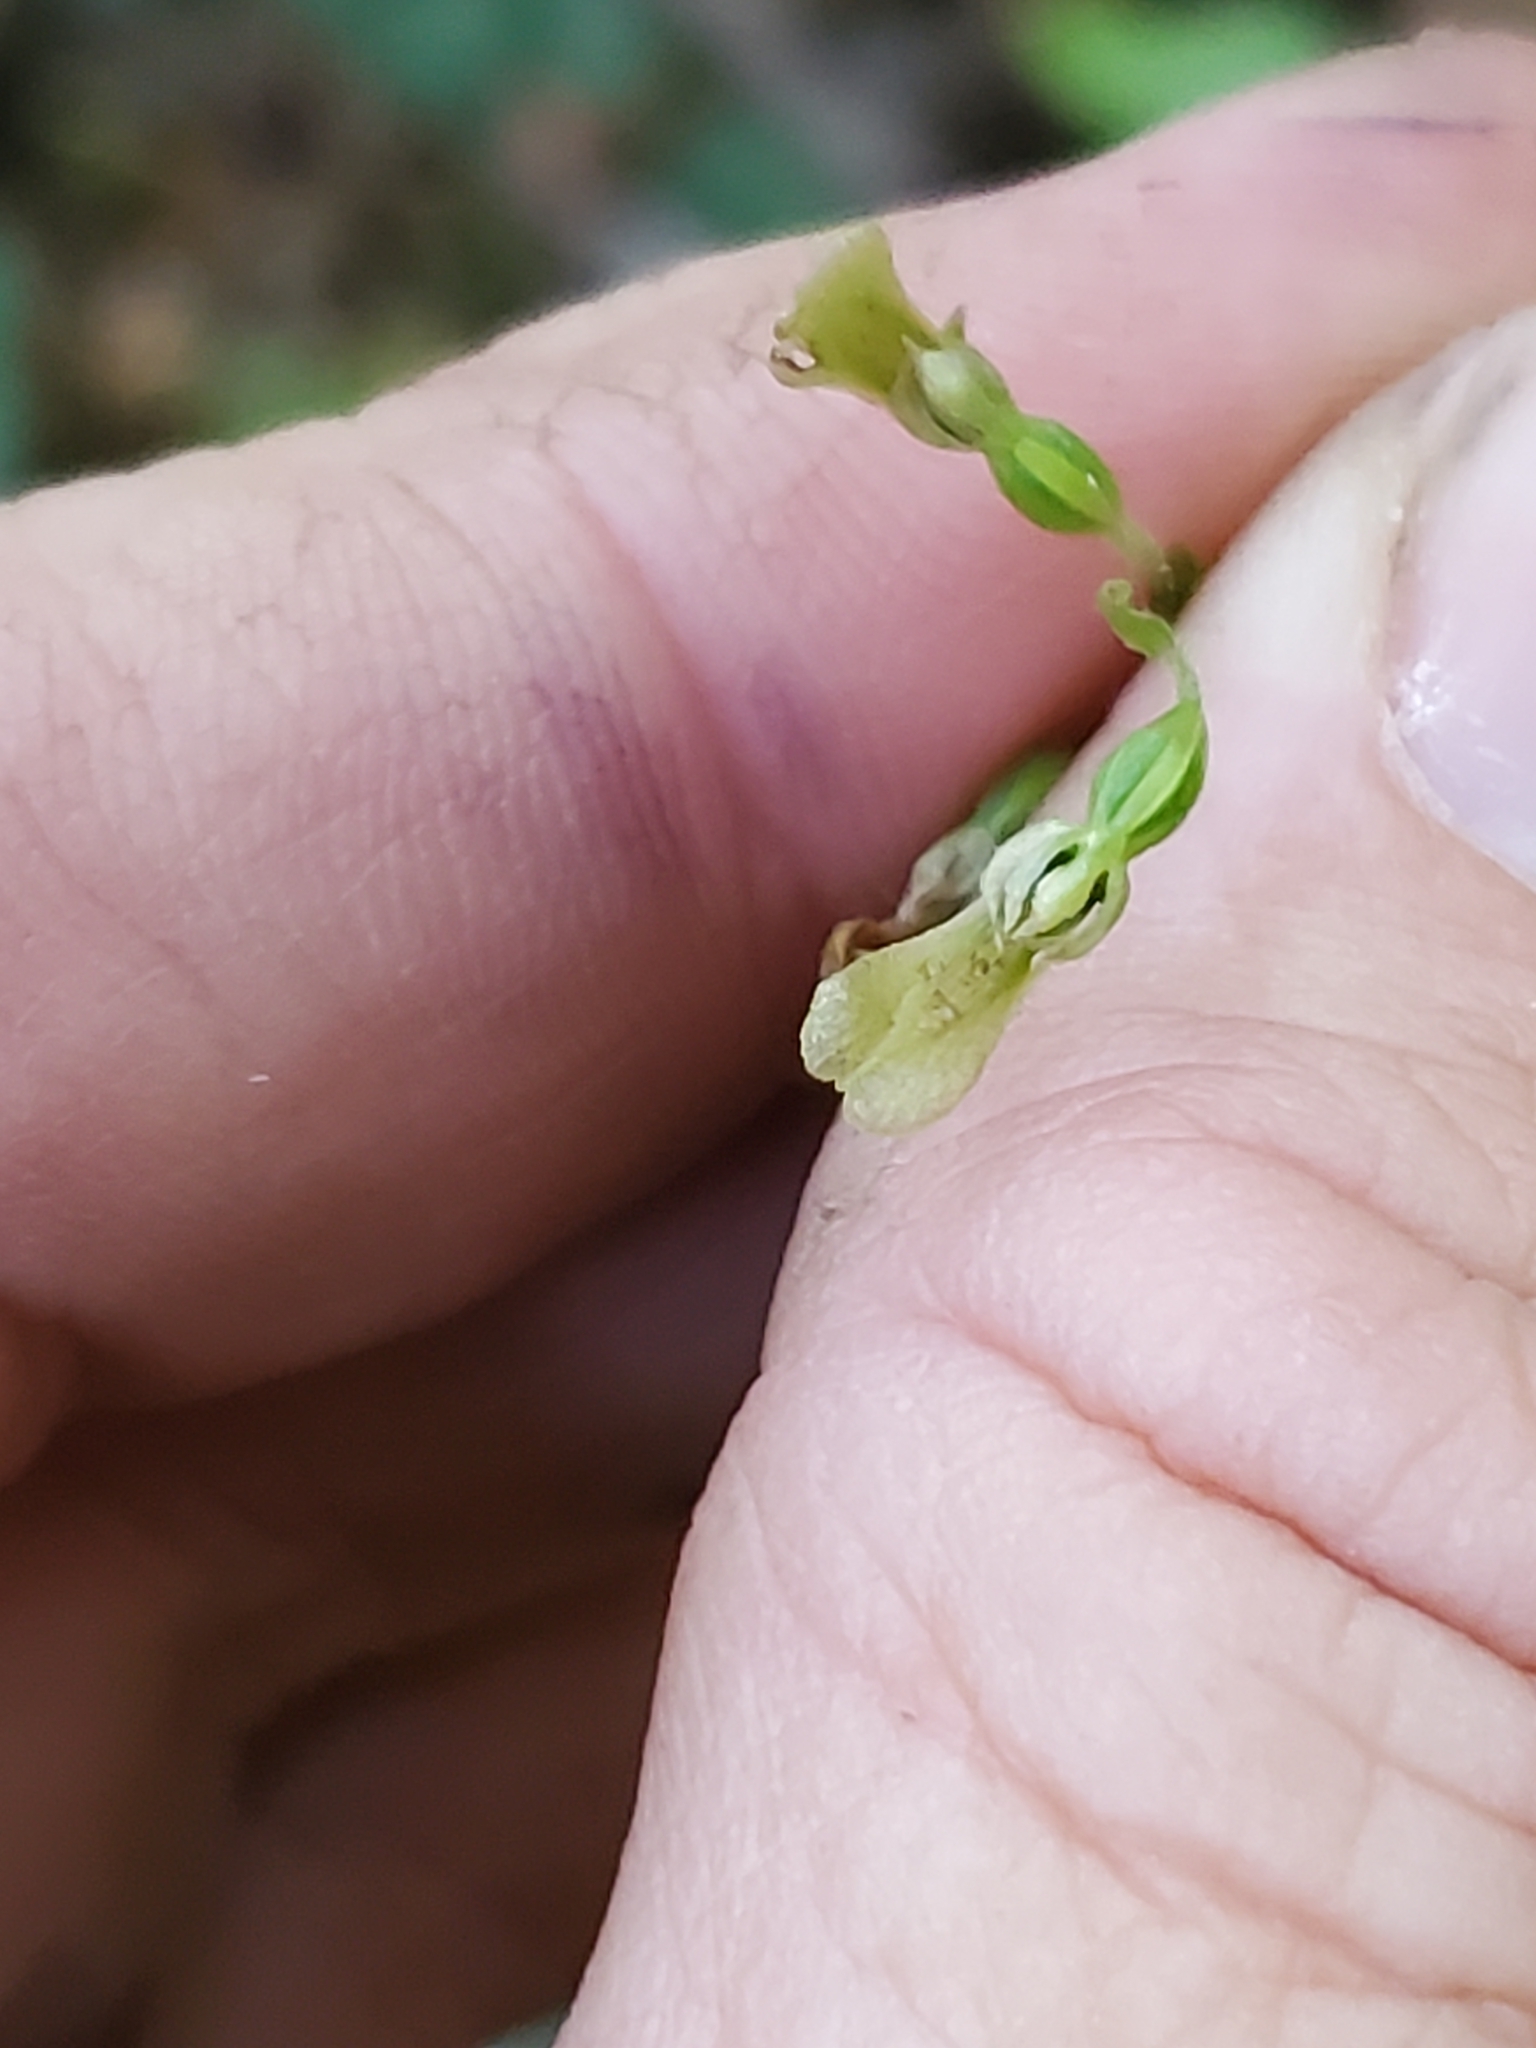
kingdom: Plantae
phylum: Tracheophyta
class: Liliopsida
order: Asparagales
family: Orchidaceae
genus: Neottia
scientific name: Neottia banksiana
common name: Northwestern twayblade
